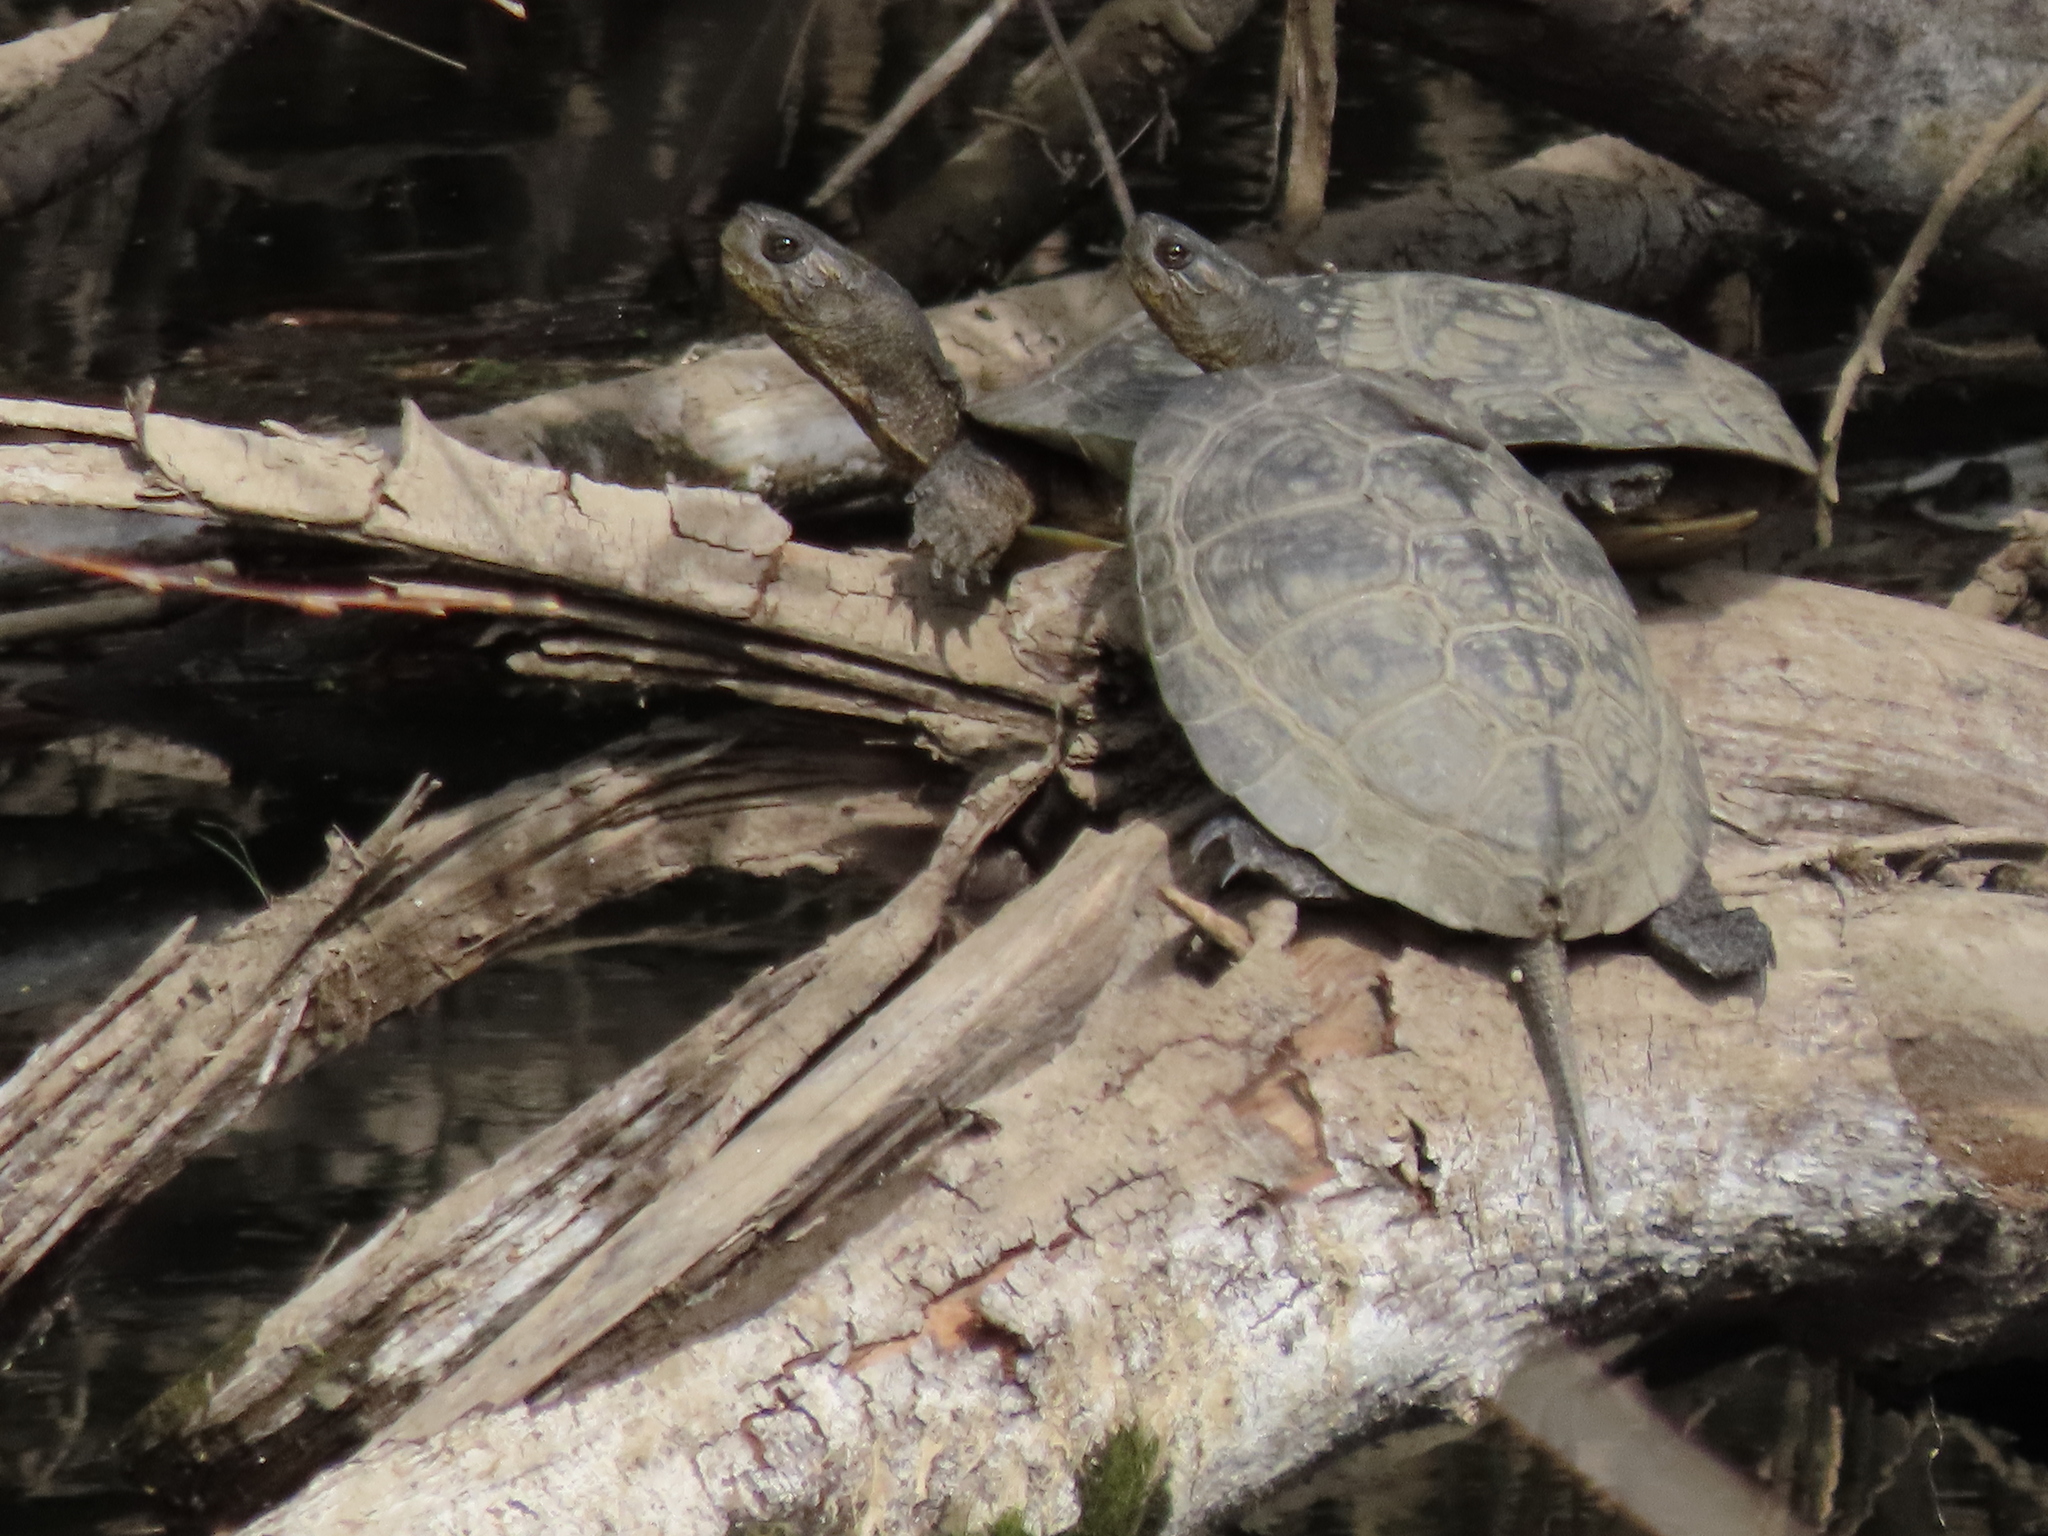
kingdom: Animalia
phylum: Chordata
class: Testudines
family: Emydidae
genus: Actinemys
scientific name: Actinemys marmorata
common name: Western pond turtle
